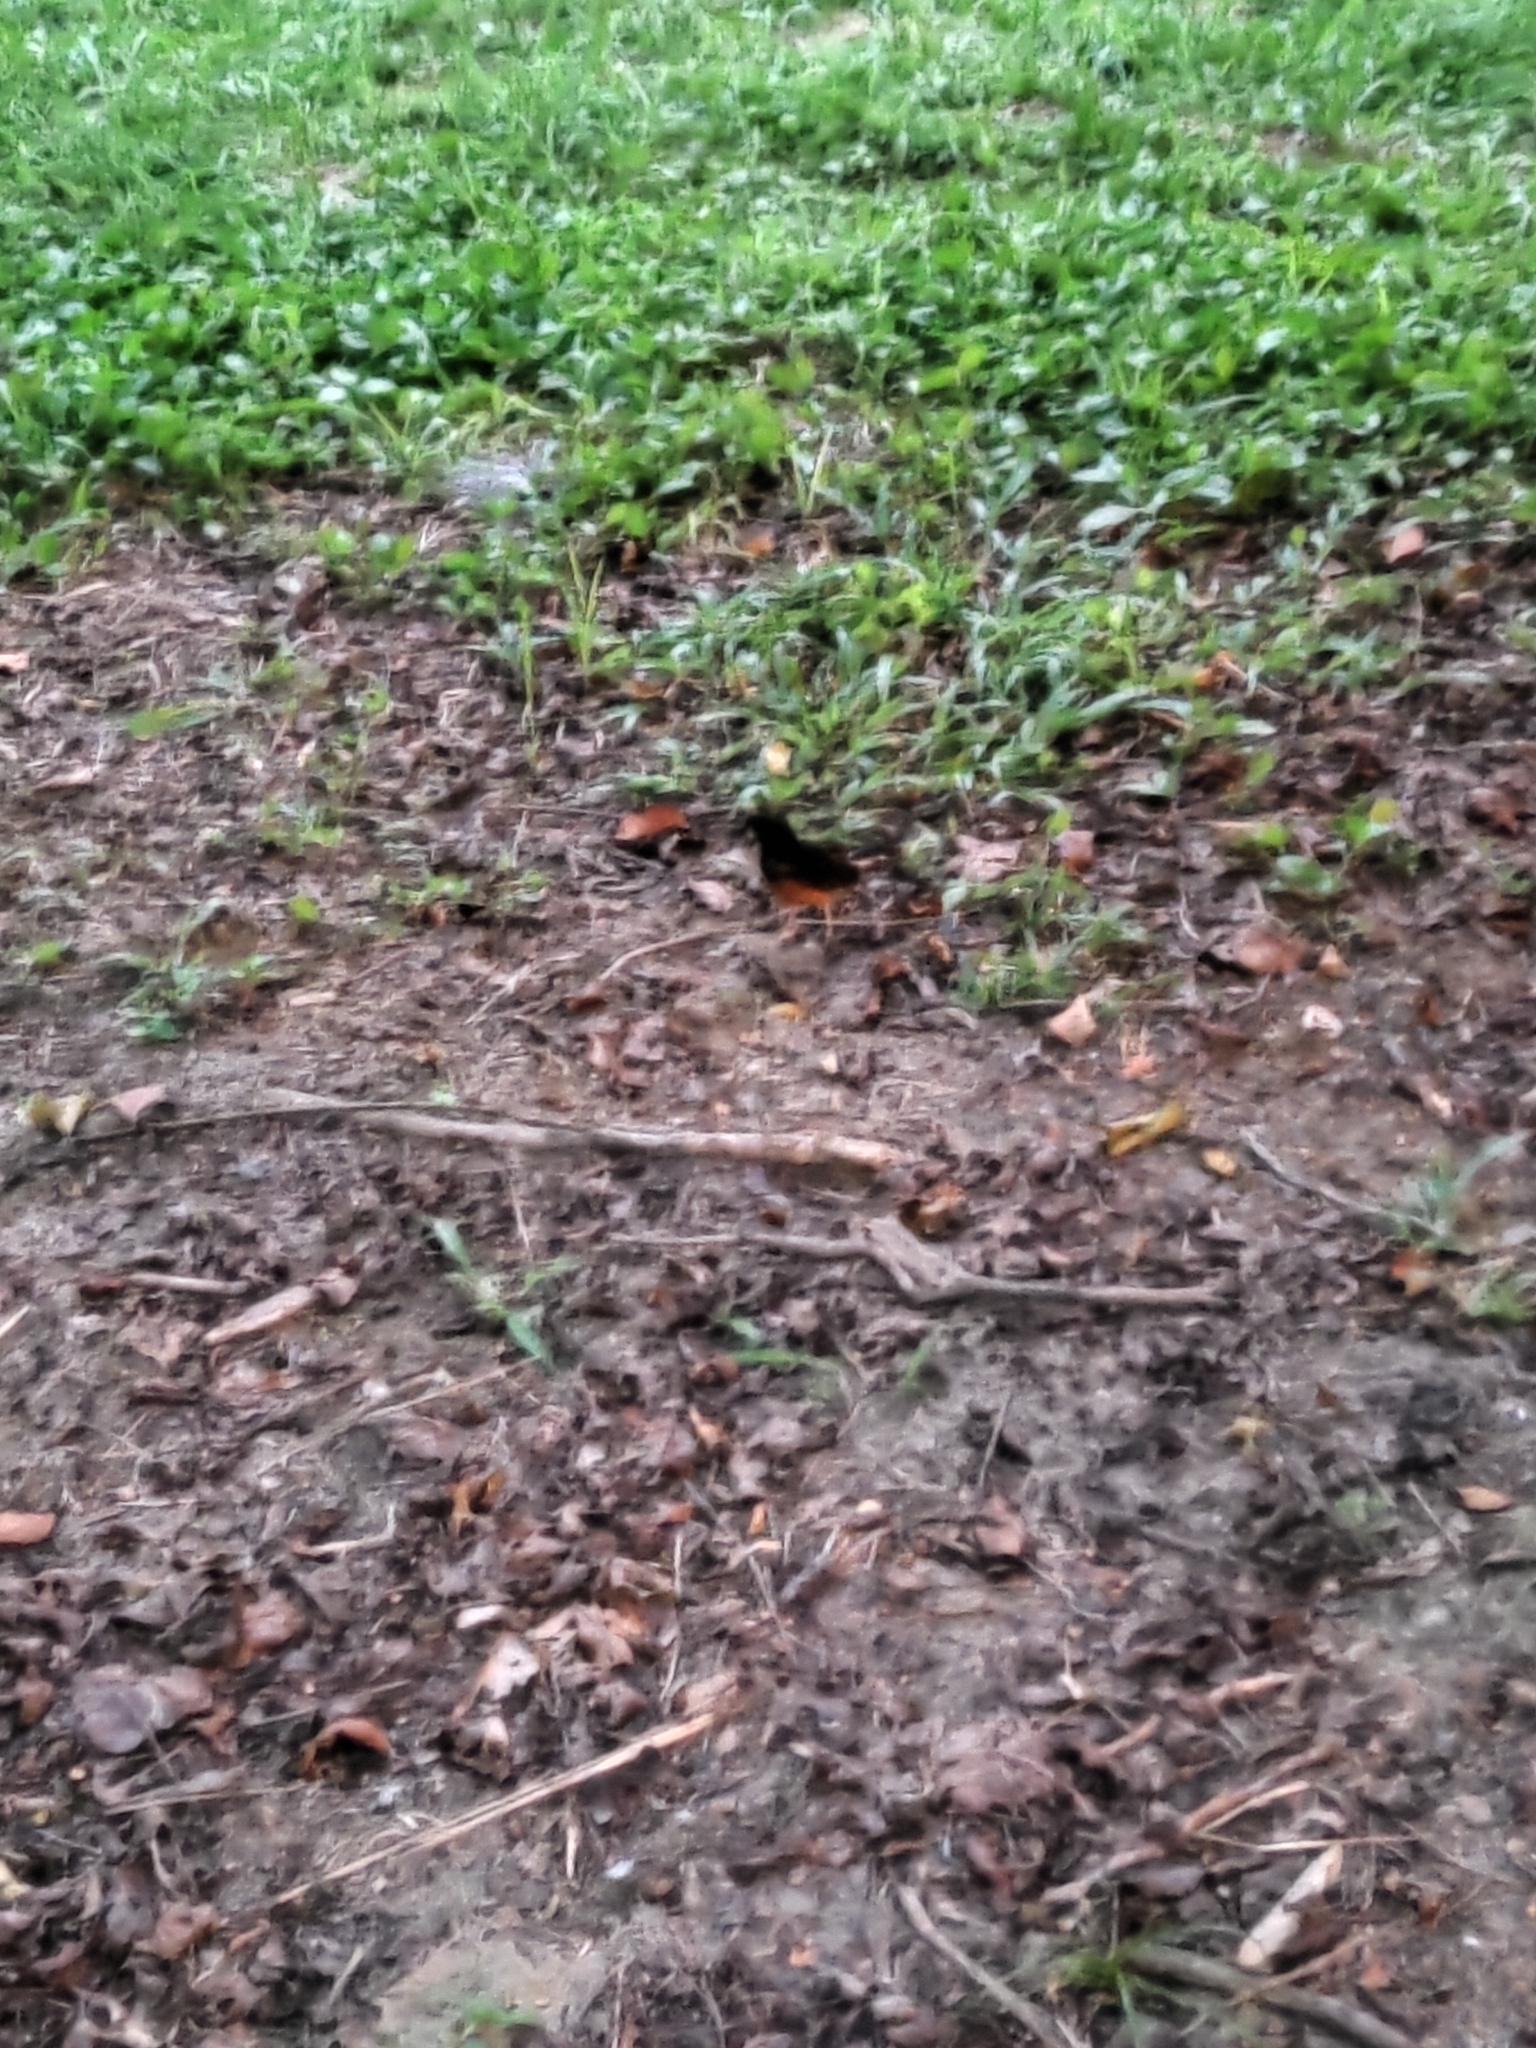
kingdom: Animalia
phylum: Chordata
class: Aves
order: Passeriformes
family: Muscicapidae
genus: Copsychus
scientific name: Copsychus malabaricus
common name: White-rumped shama
